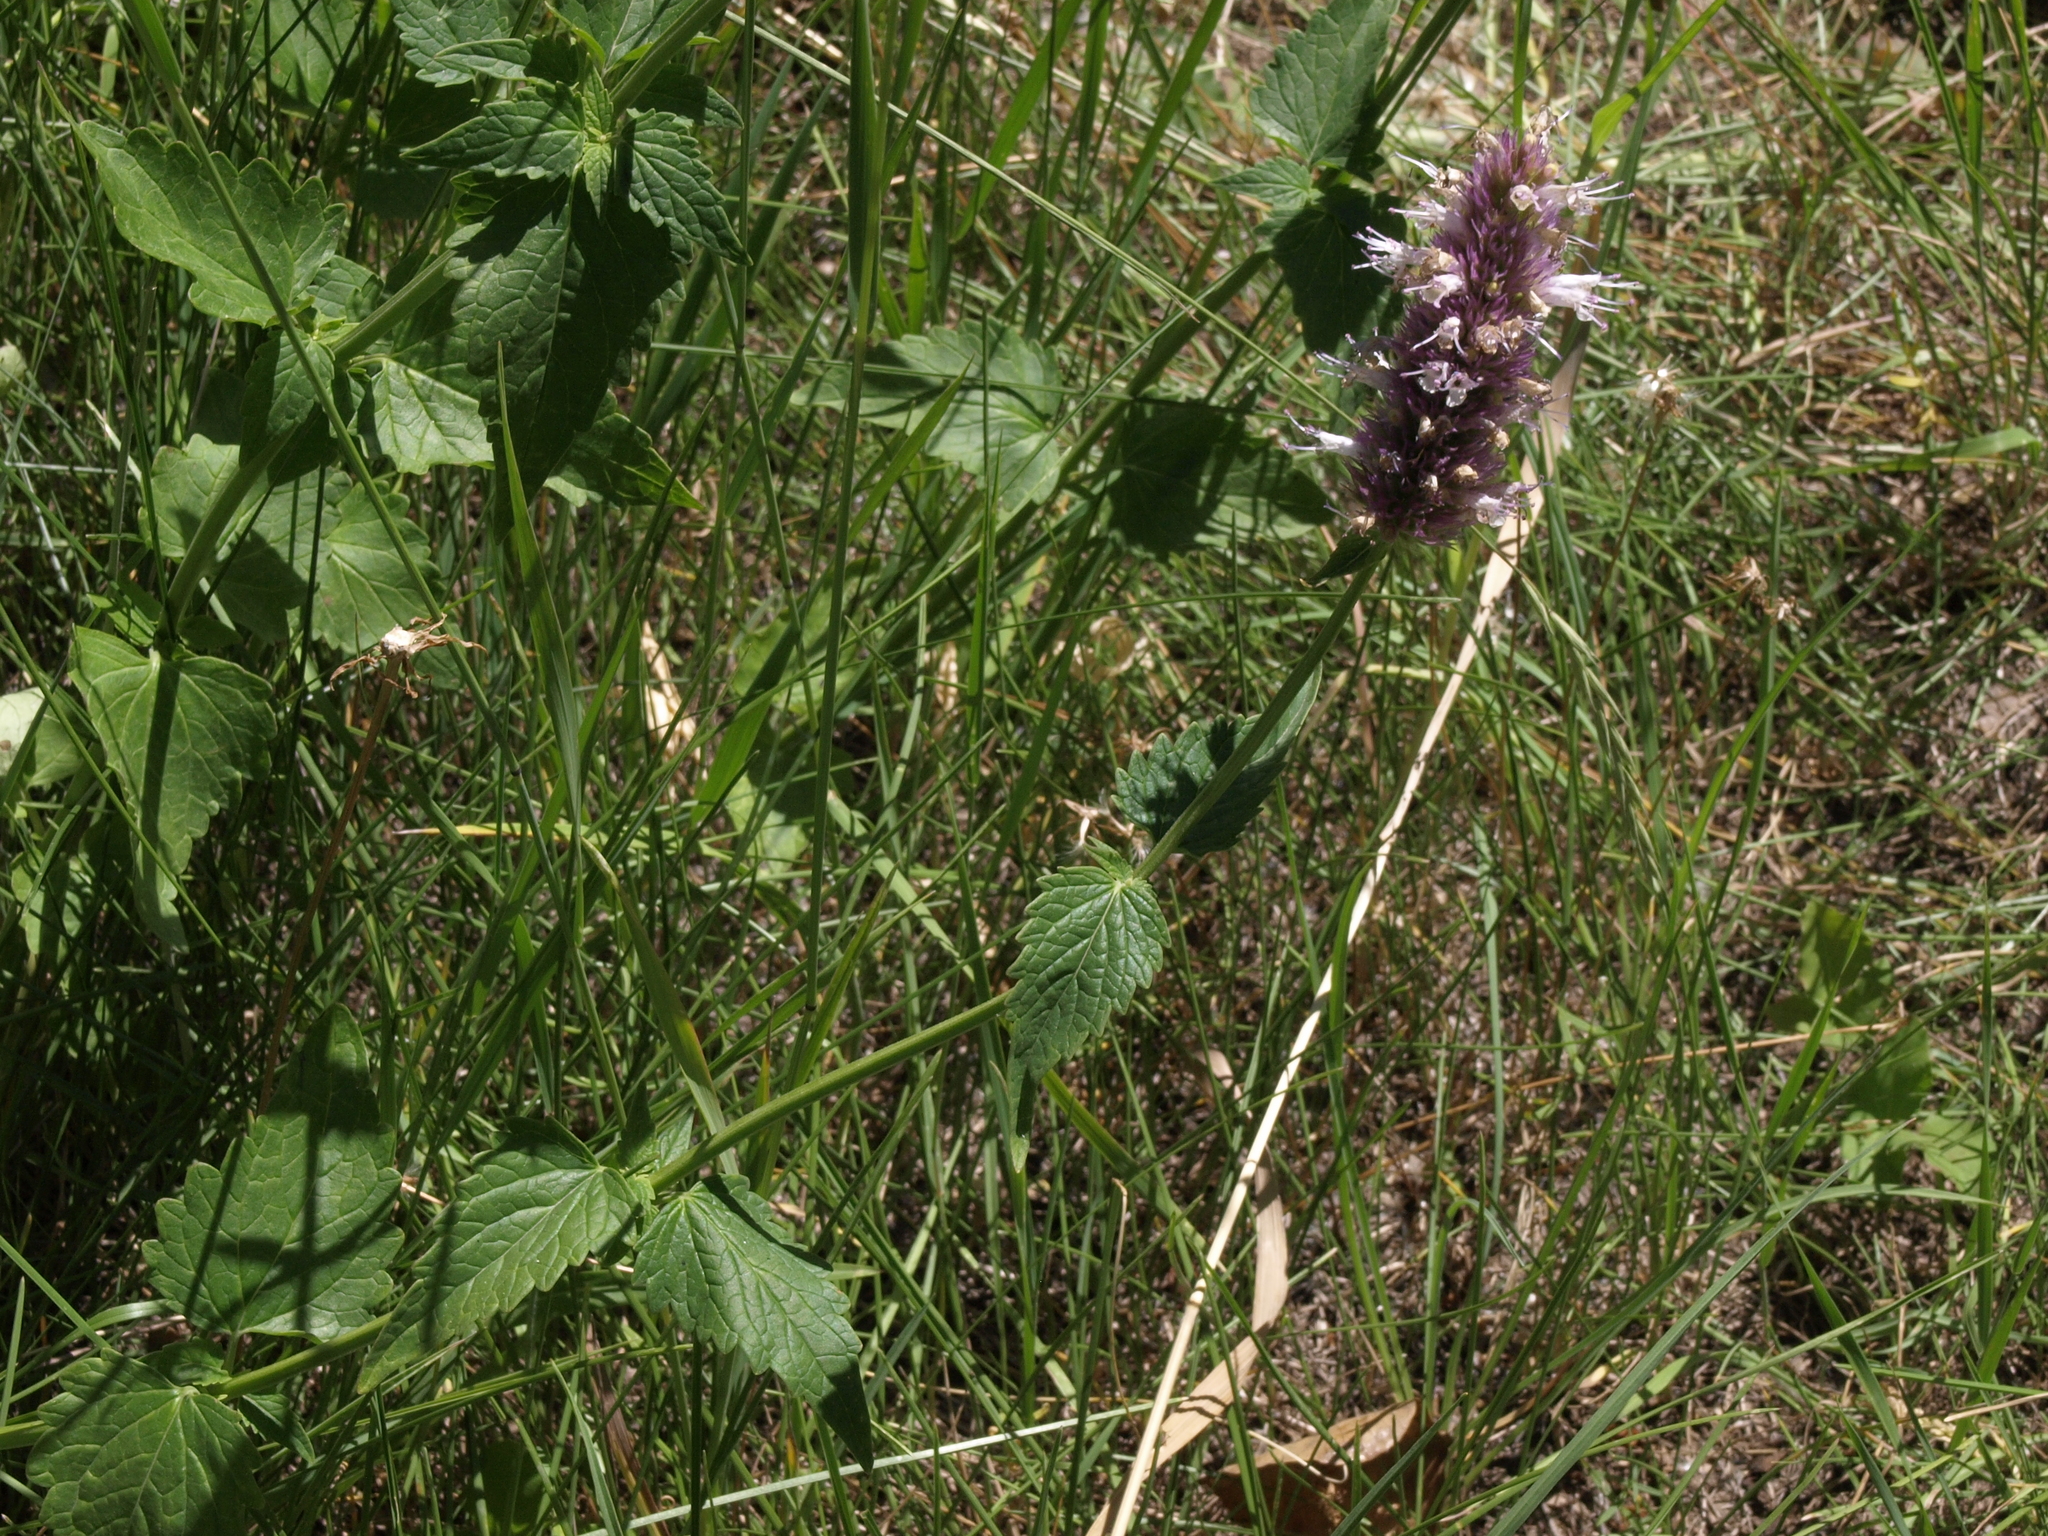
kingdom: Plantae
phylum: Tracheophyta
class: Magnoliopsida
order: Lamiales
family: Lamiaceae
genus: Agastache
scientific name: Agastache urticifolia
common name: Horsemint giant hyssop
